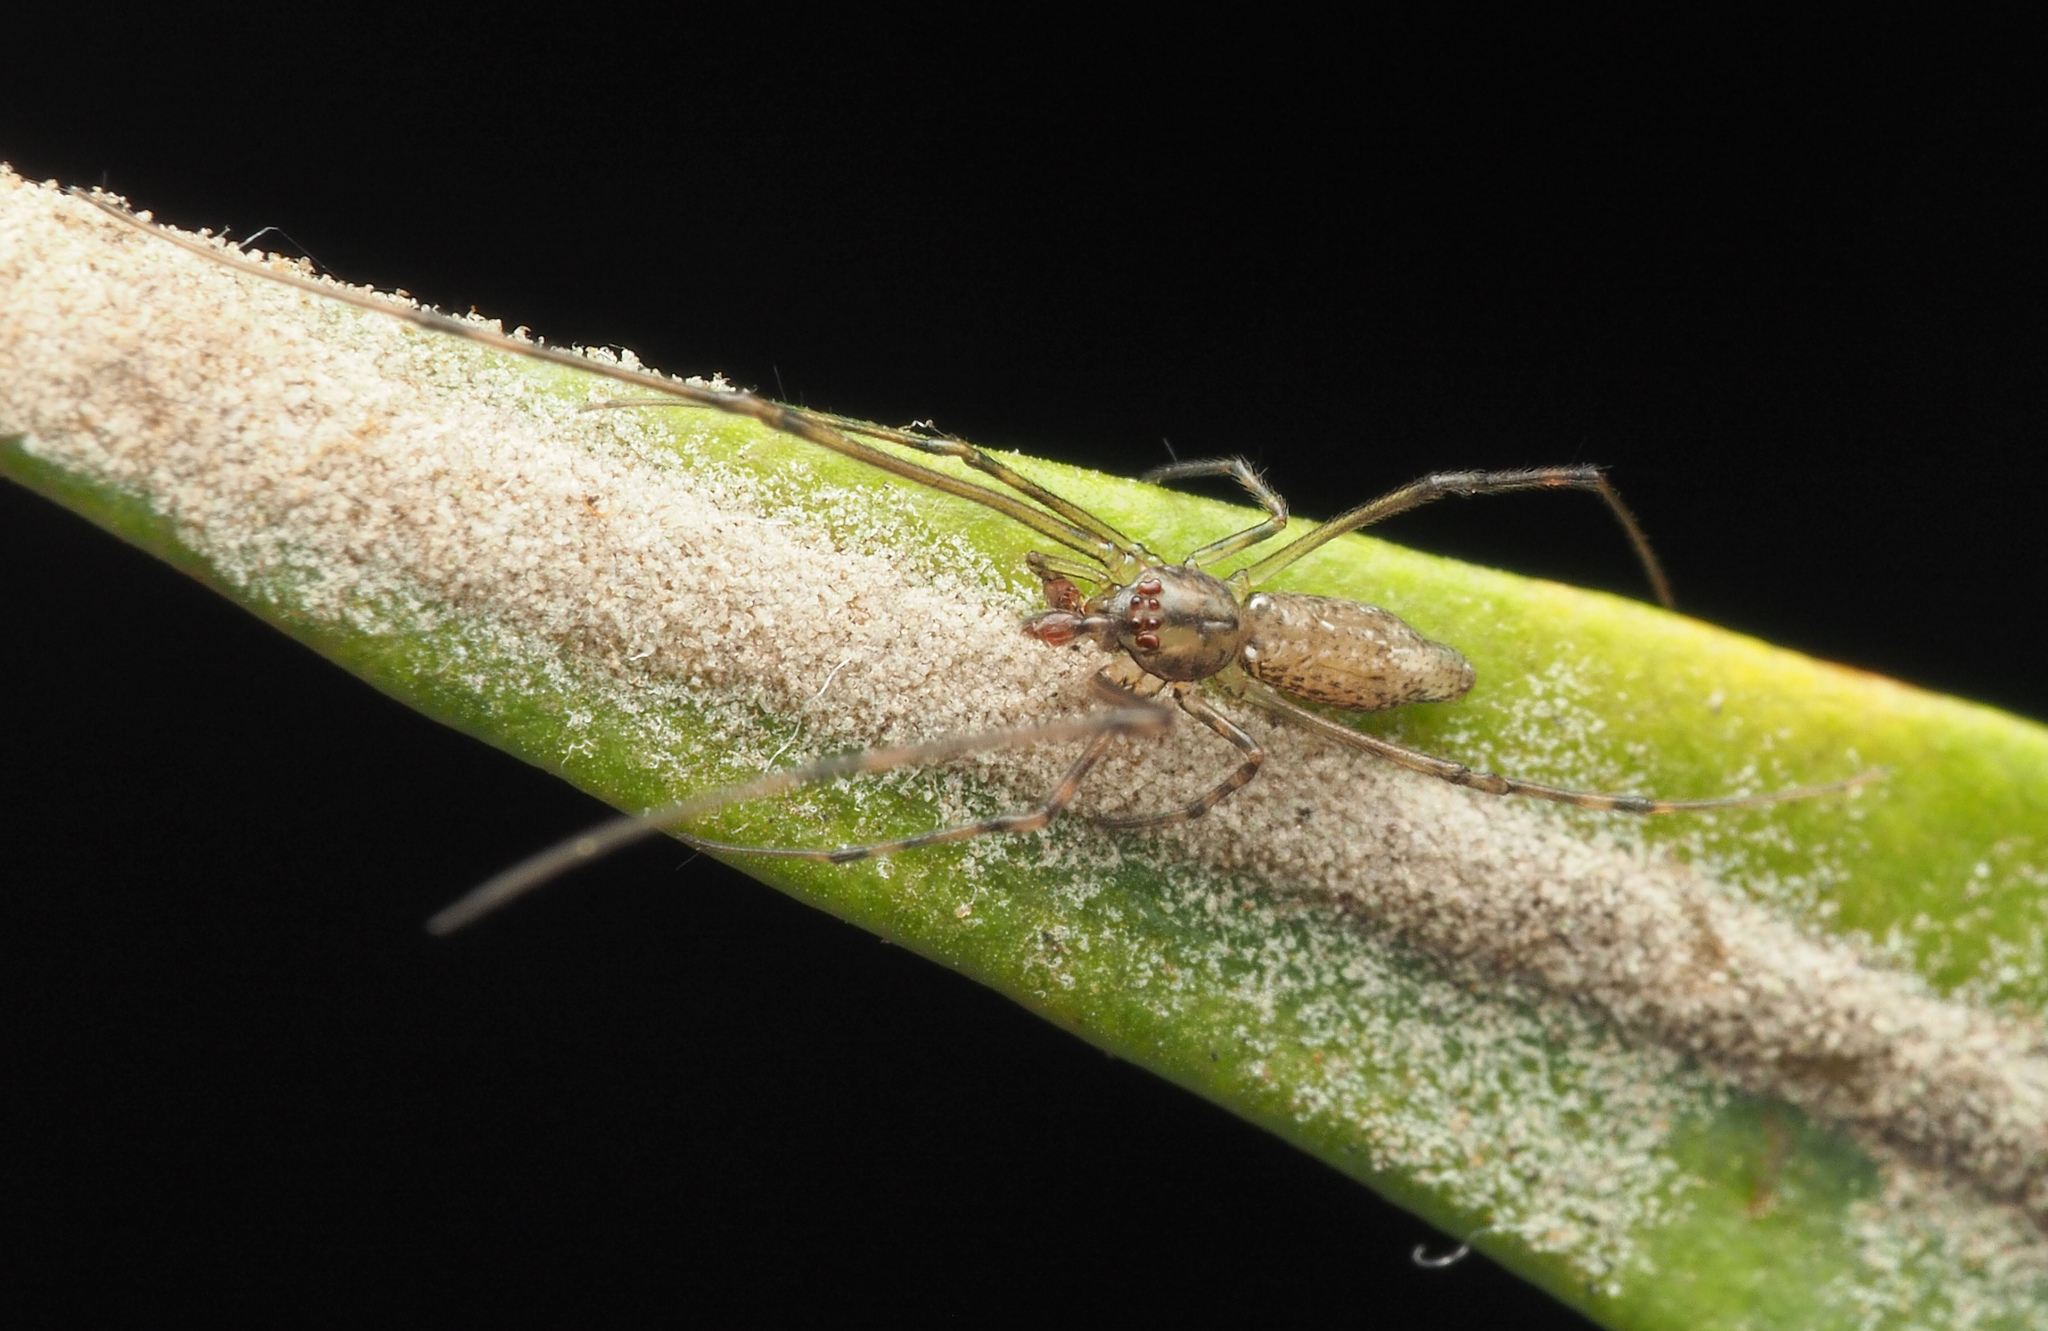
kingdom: Animalia
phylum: Arthropoda
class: Arachnida
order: Araneae
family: Theridiidae
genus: Moneta
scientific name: Moneta
